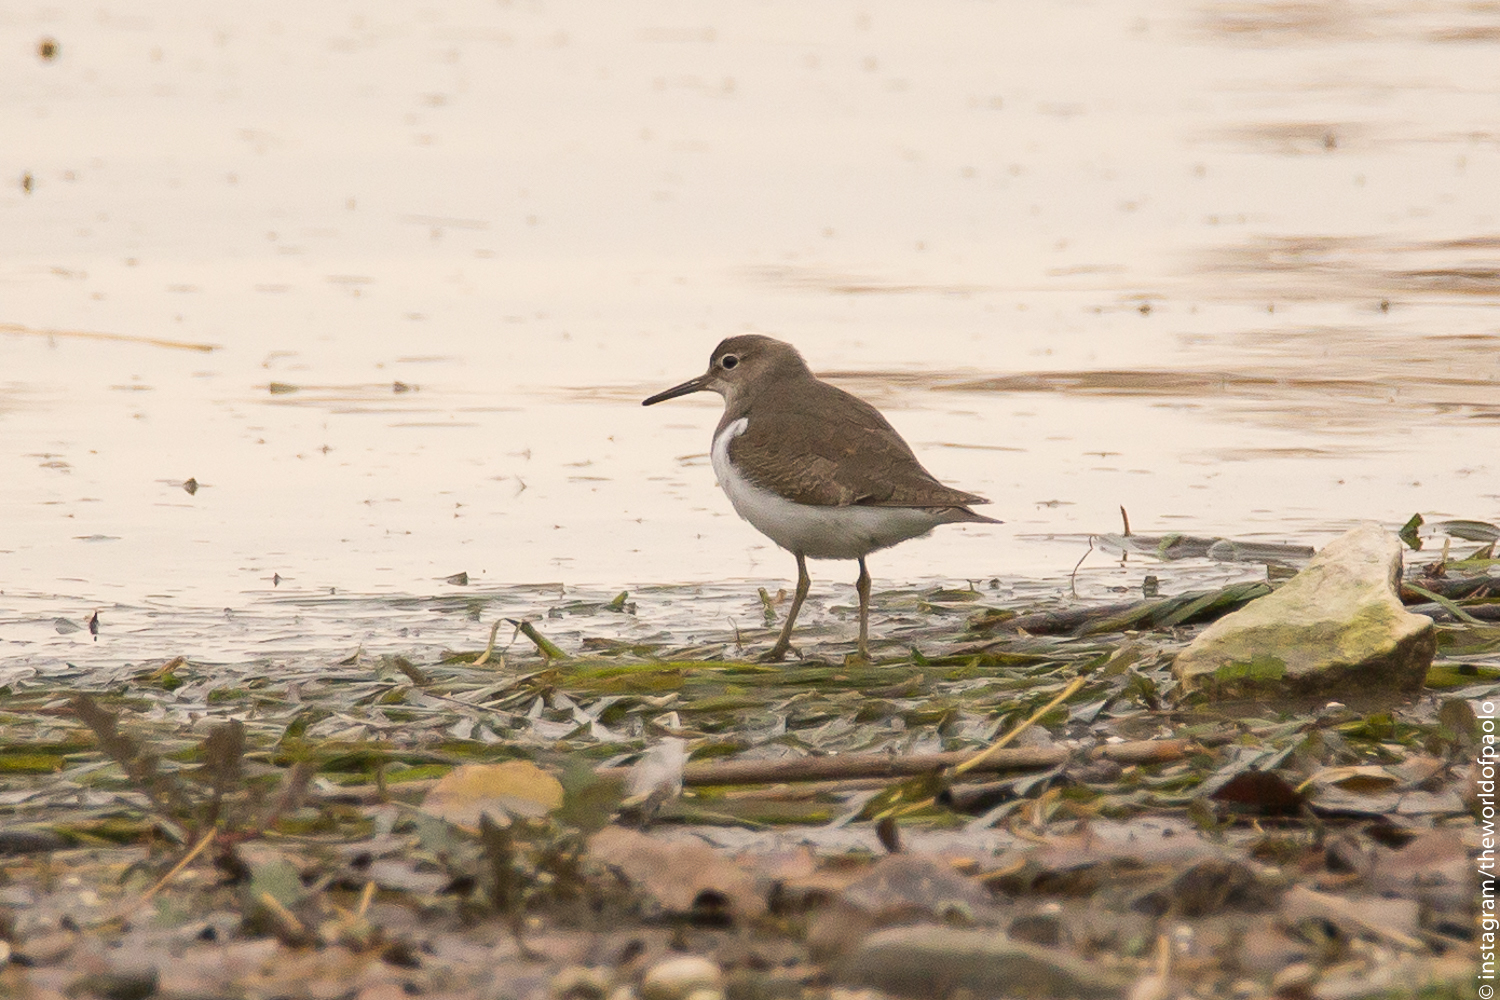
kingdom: Animalia
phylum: Chordata
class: Aves
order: Charadriiformes
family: Scolopacidae
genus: Actitis
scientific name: Actitis hypoleucos
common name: Common sandpiper
